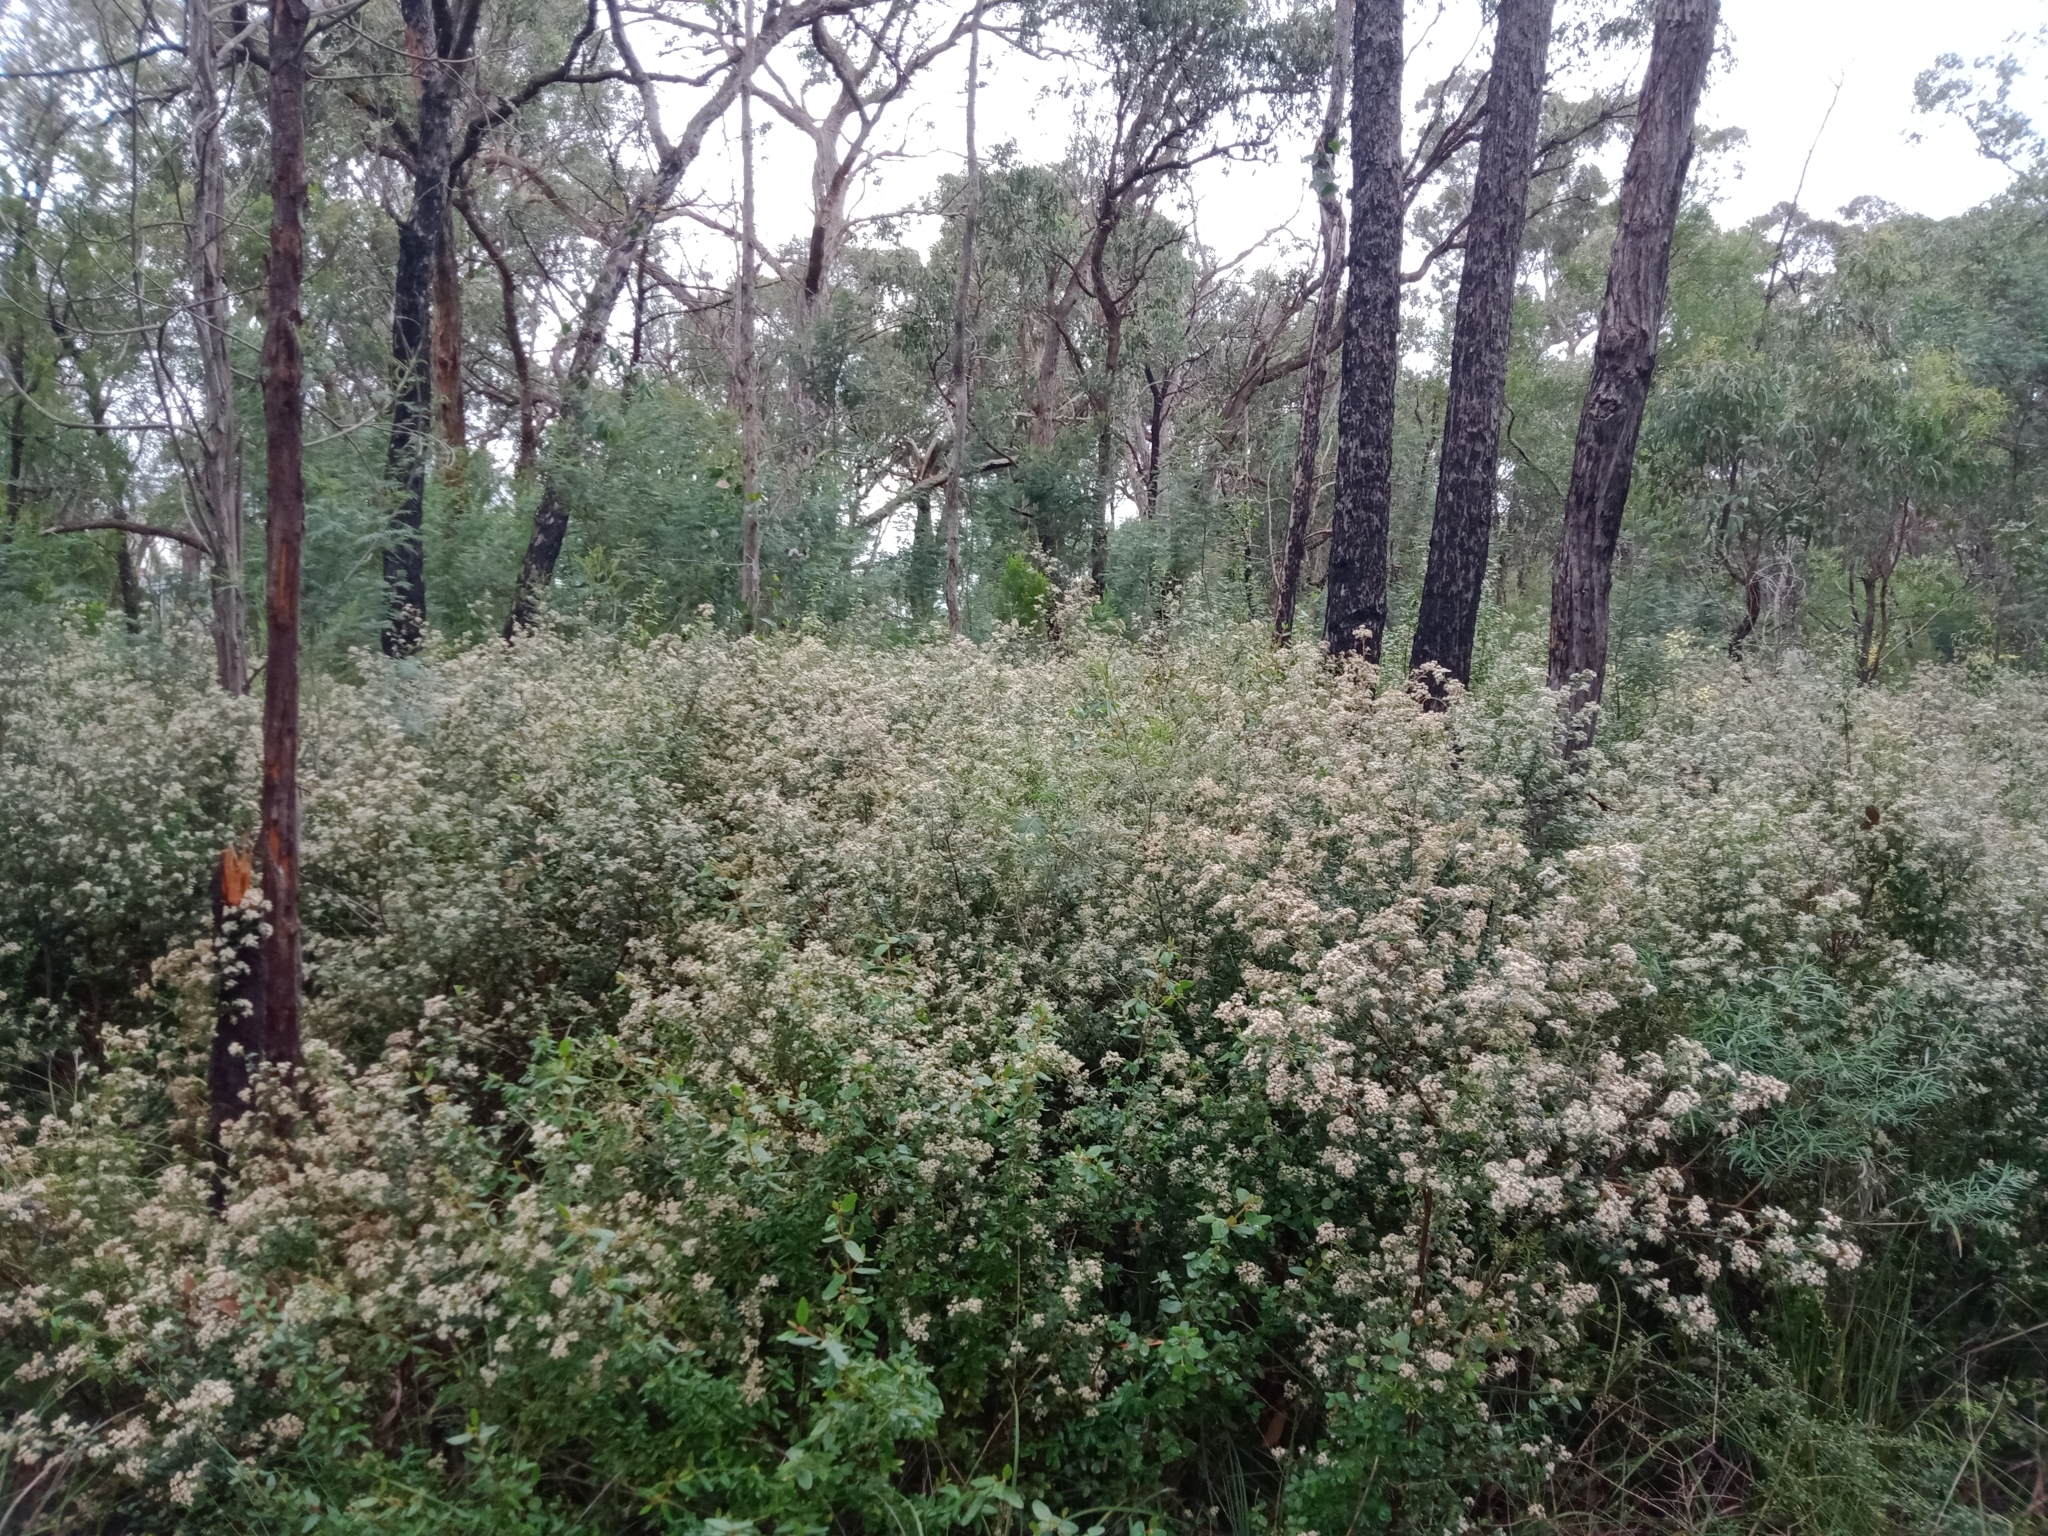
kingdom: Plantae
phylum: Tracheophyta
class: Magnoliopsida
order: Rosales
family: Rhamnaceae
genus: Spyridium
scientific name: Spyridium parvifolium
